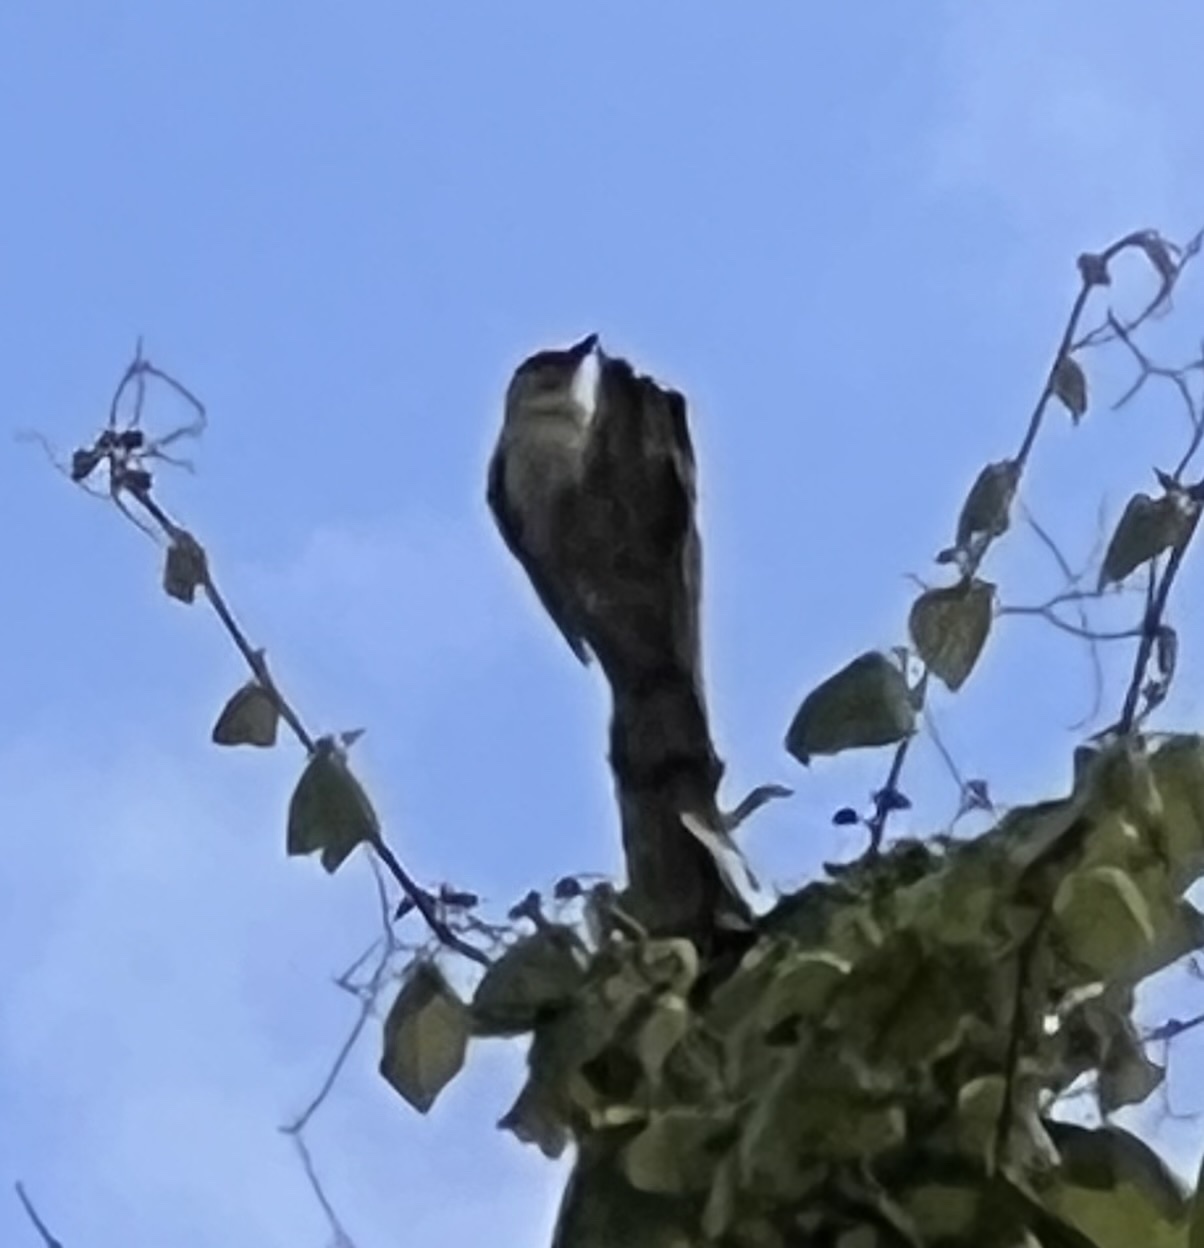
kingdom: Animalia
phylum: Chordata
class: Aves
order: Piciformes
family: Picidae
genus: Melanerpes
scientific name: Melanerpes carolinus
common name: Red-bellied woodpecker
